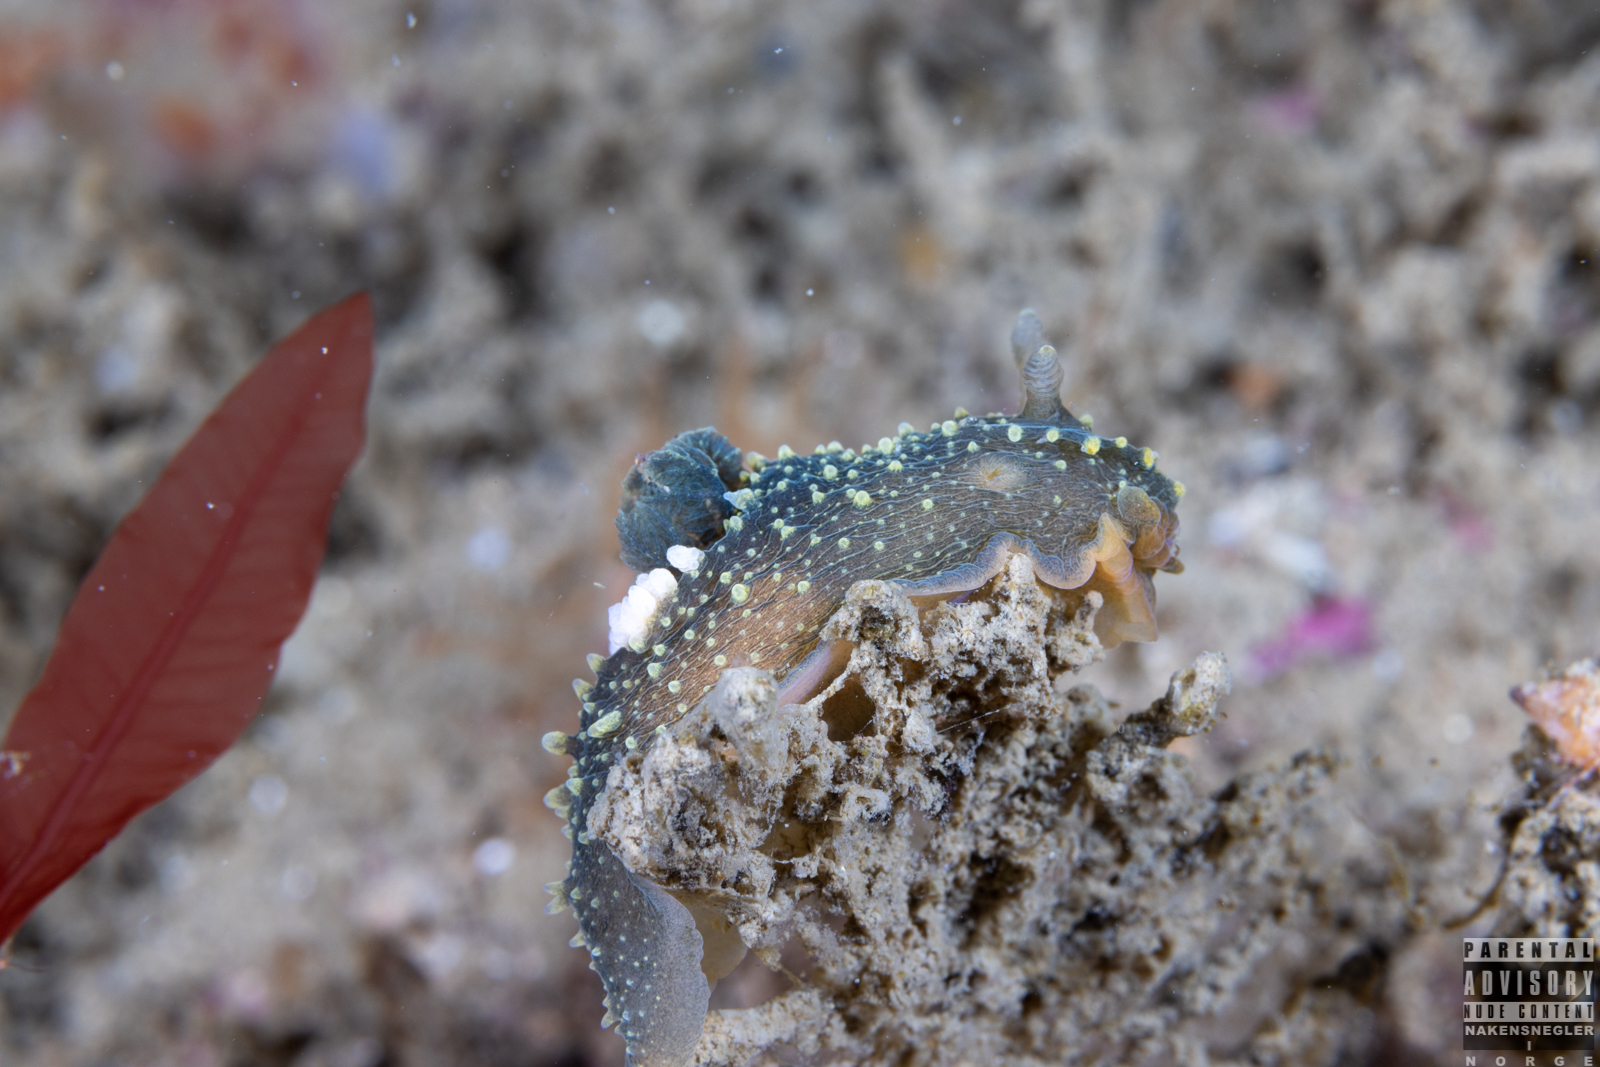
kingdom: Animalia
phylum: Mollusca
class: Gastropoda
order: Nudibranchia
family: Polyceridae
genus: Palio
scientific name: Palio dubia
